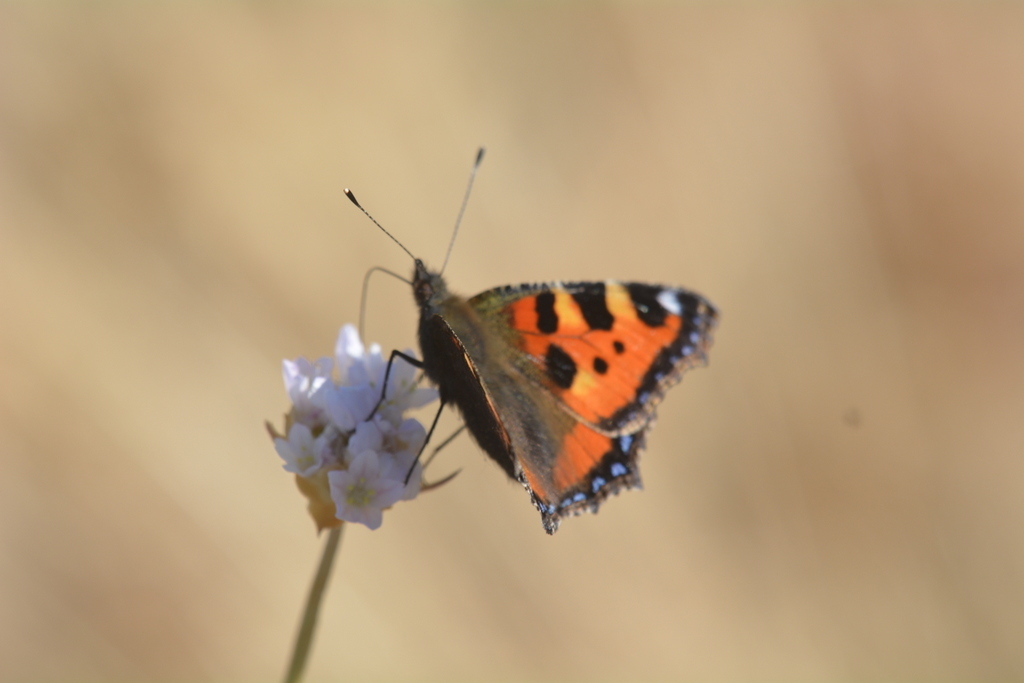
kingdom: Animalia
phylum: Arthropoda
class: Insecta
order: Lepidoptera
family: Nymphalidae
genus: Aglais
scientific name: Aglais urticae
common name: Small tortoiseshell
